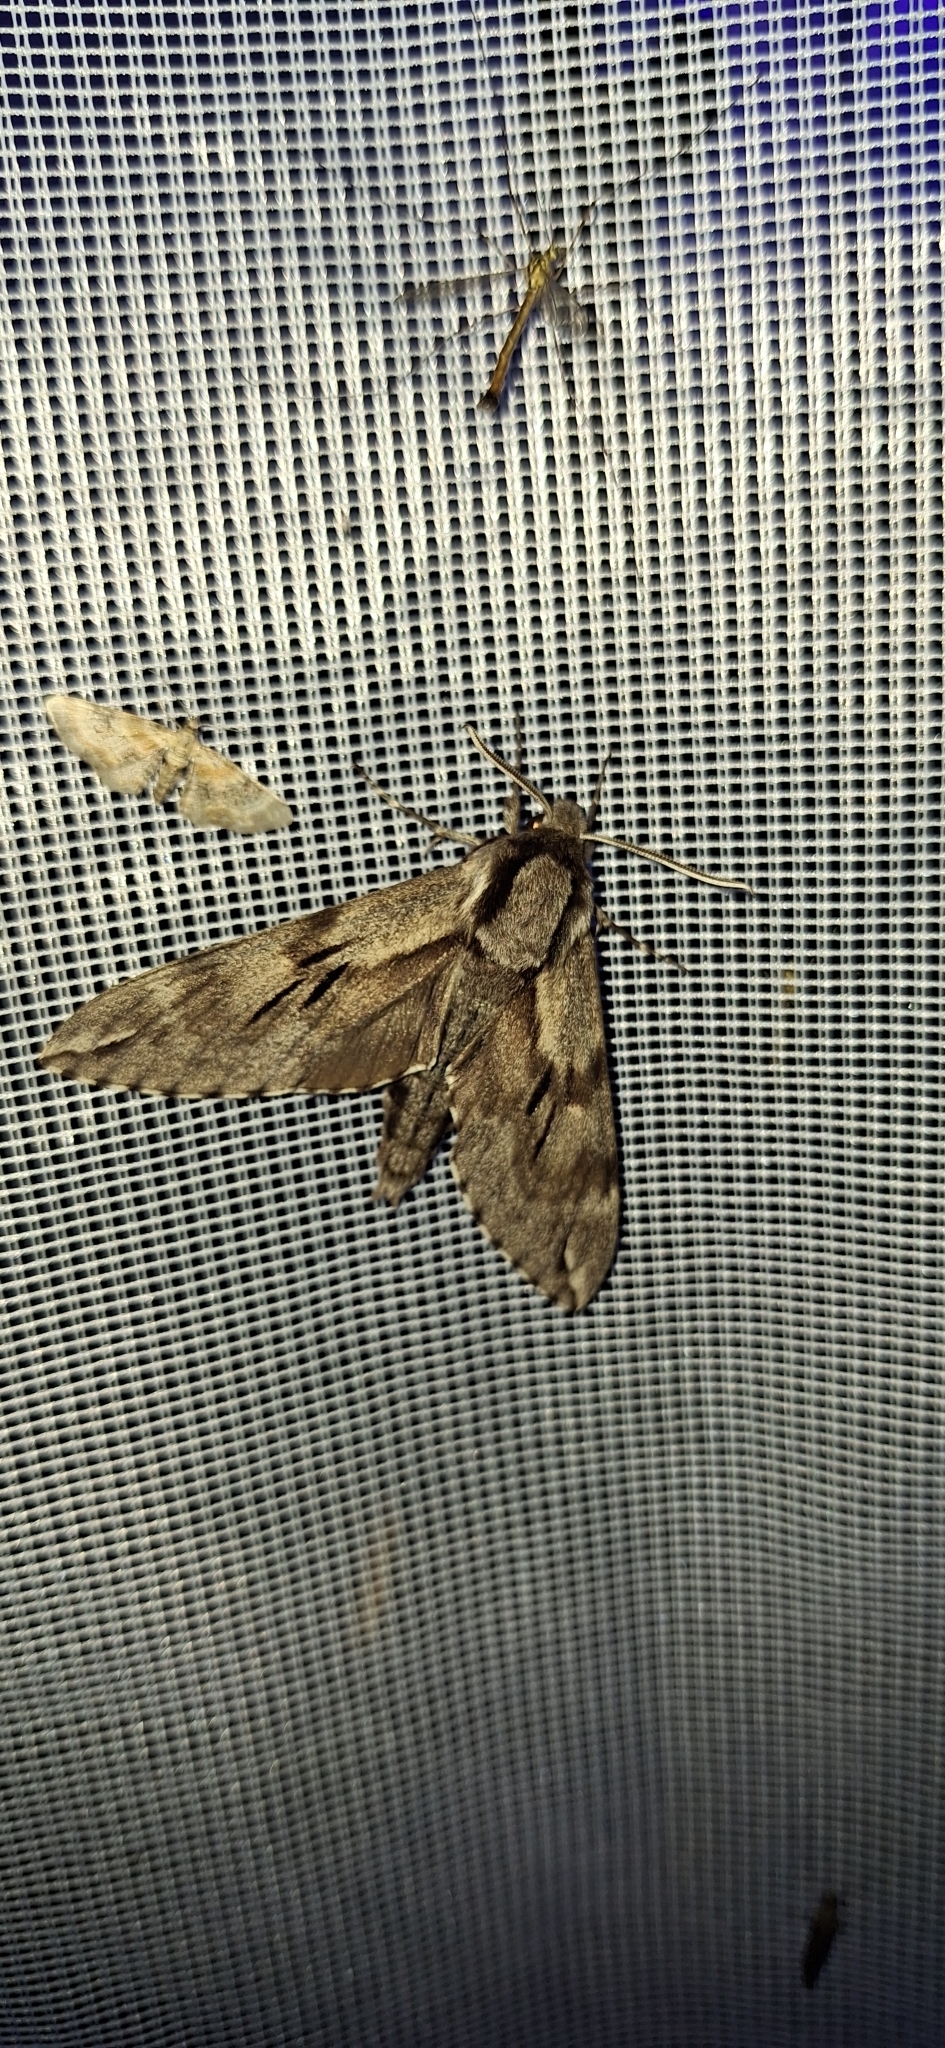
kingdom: Animalia
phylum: Arthropoda
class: Insecta
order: Lepidoptera
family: Sphingidae
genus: Sphinx
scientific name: Sphinx pinastri
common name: Pine hawk-moth
